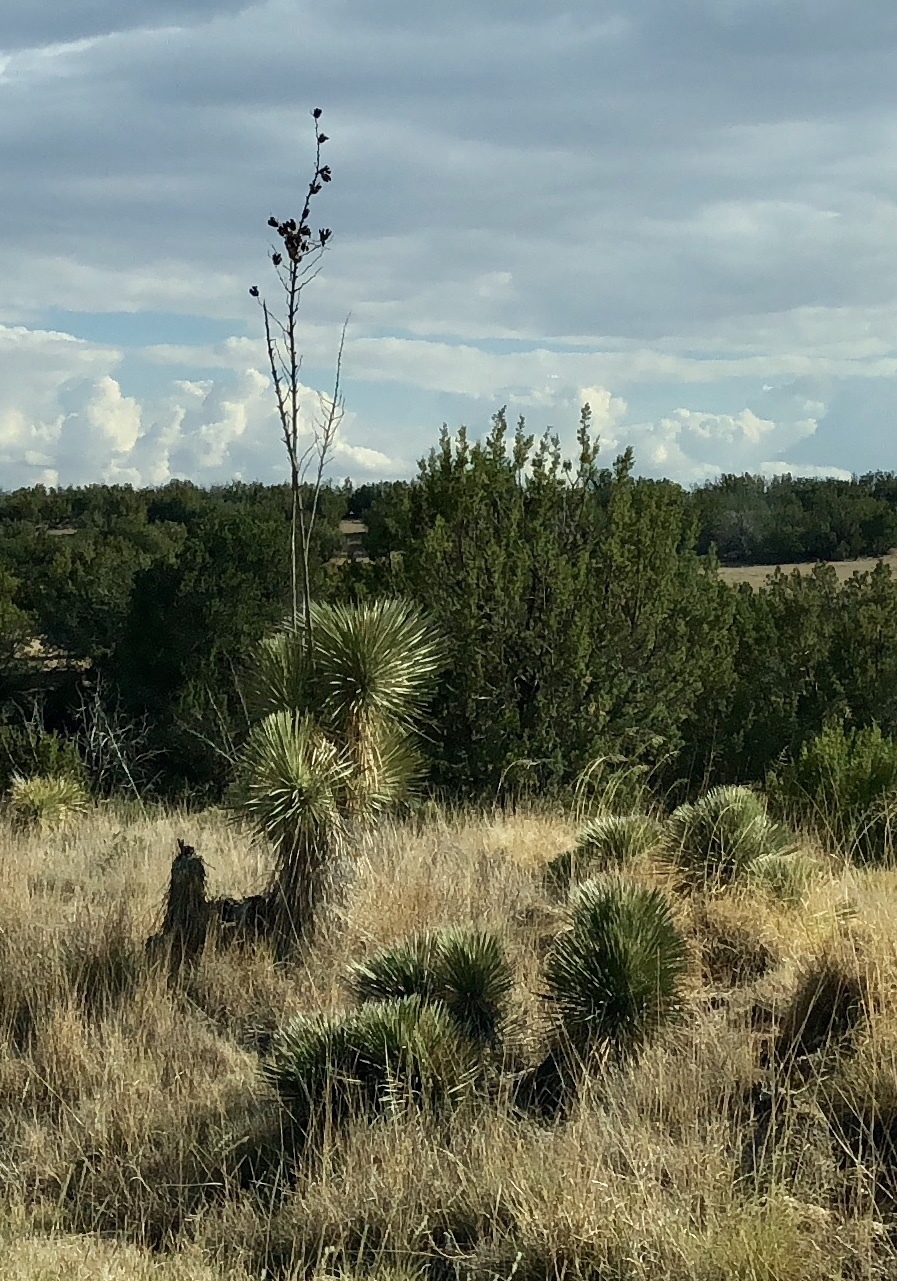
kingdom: Plantae
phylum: Tracheophyta
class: Liliopsida
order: Asparagales
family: Asparagaceae
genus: Yucca
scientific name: Yucca elata
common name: Palmella
